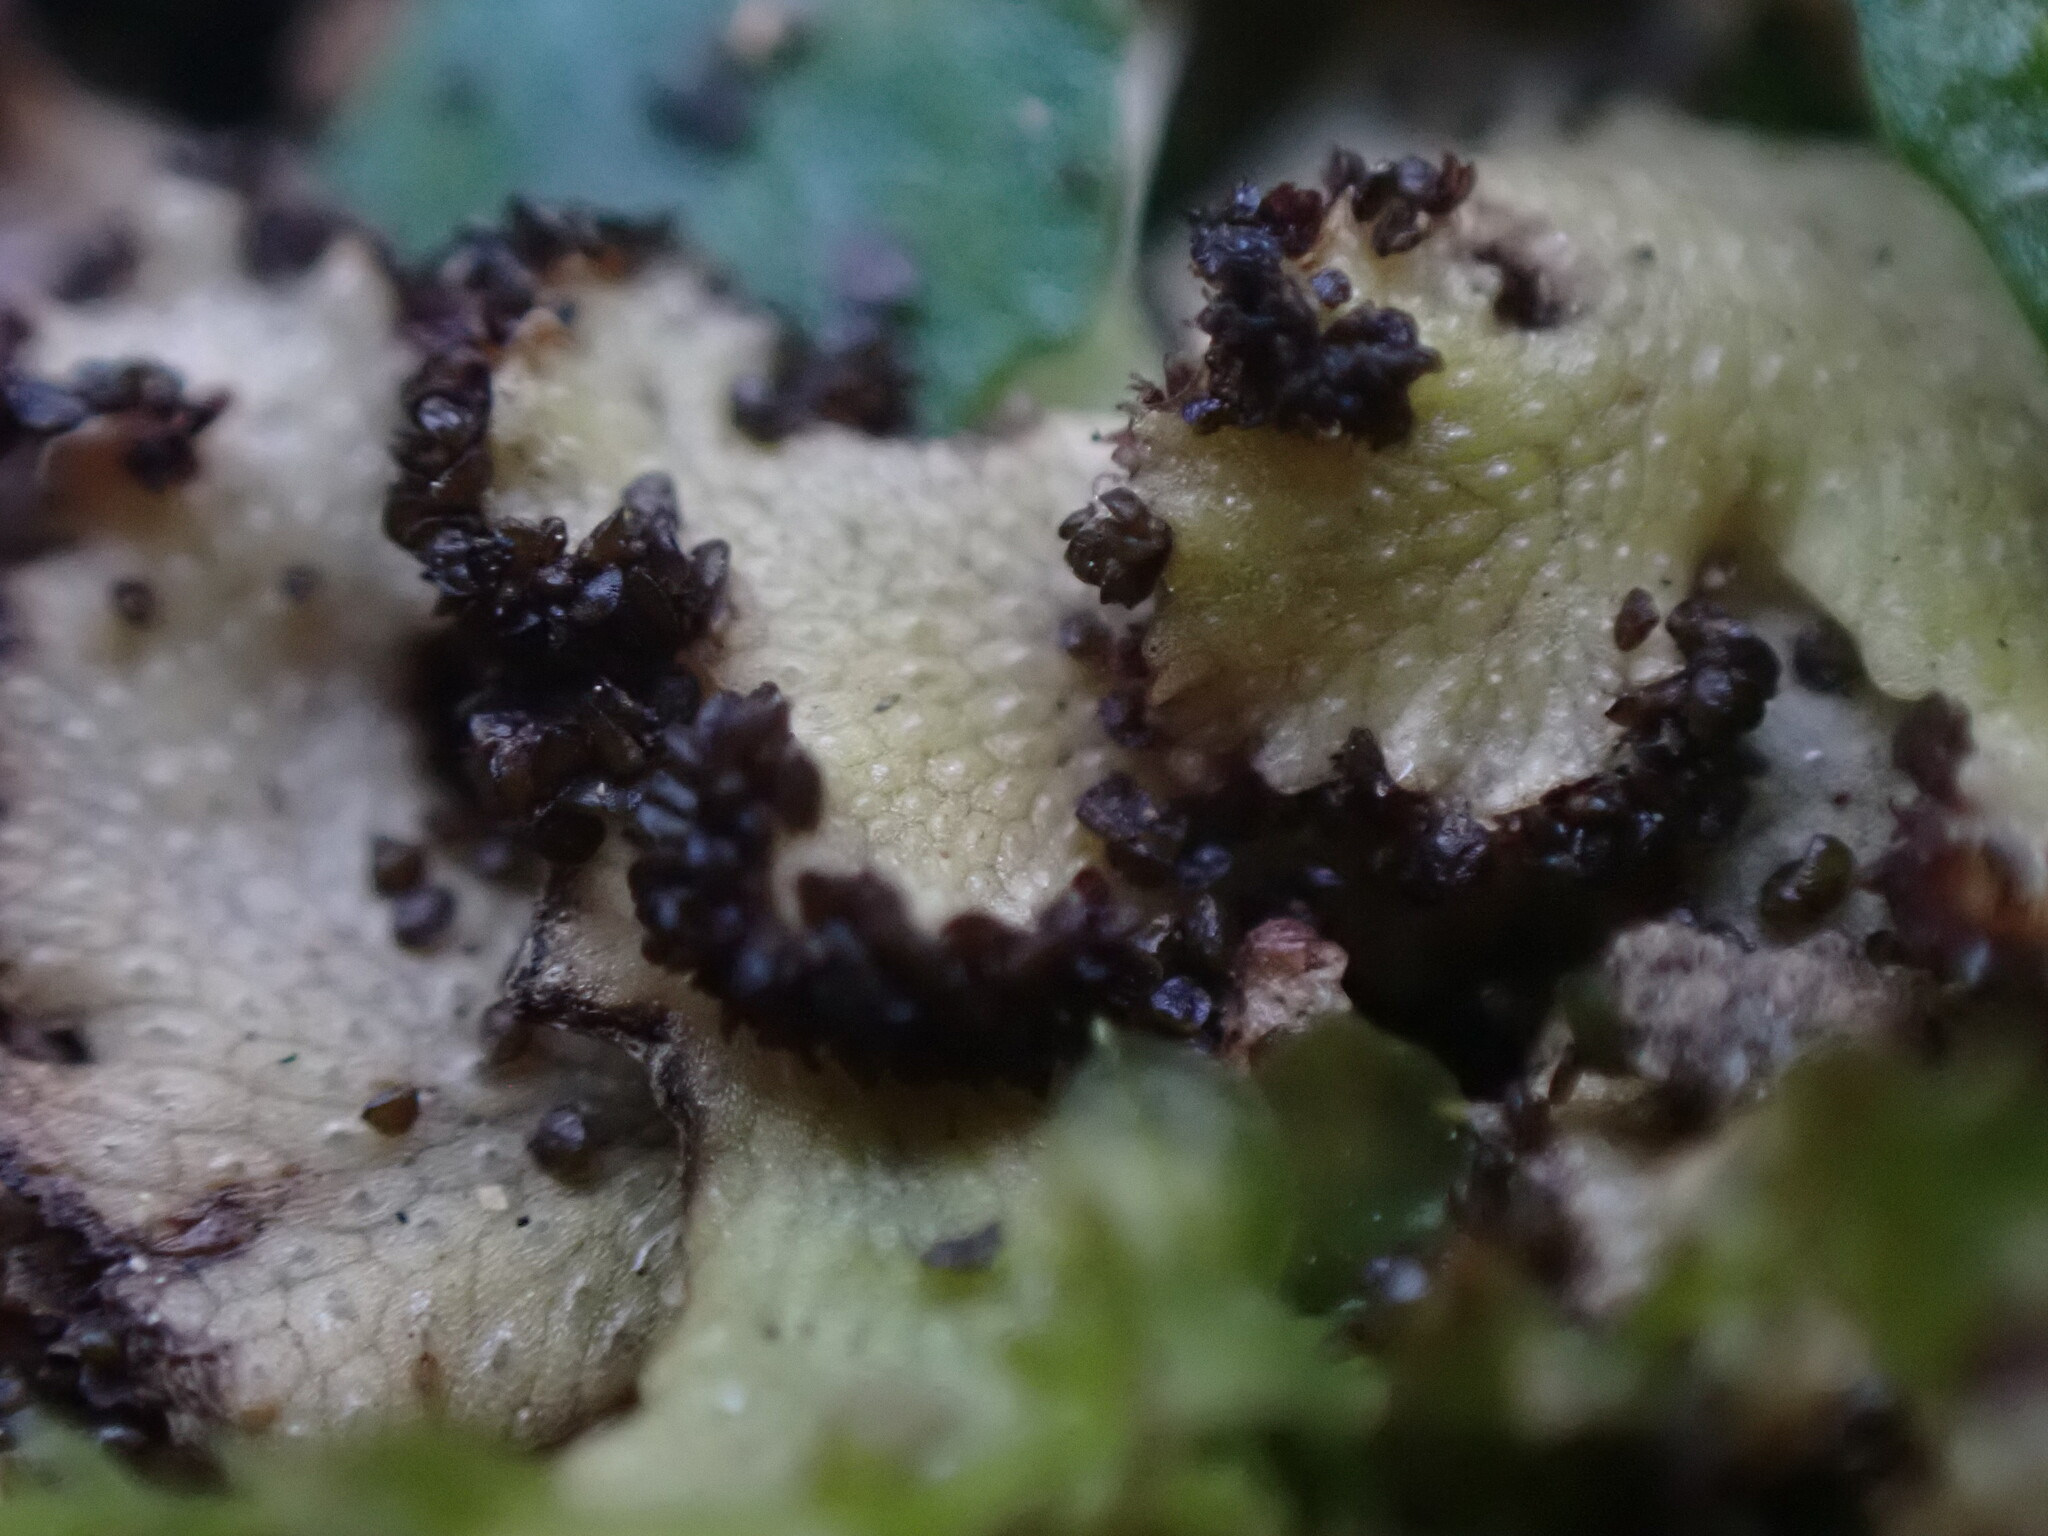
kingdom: Plantae
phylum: Marchantiophyta
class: Marchantiopsida
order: Marchantiales
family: Conocephalaceae
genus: Sandea
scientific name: Sandea japonica
